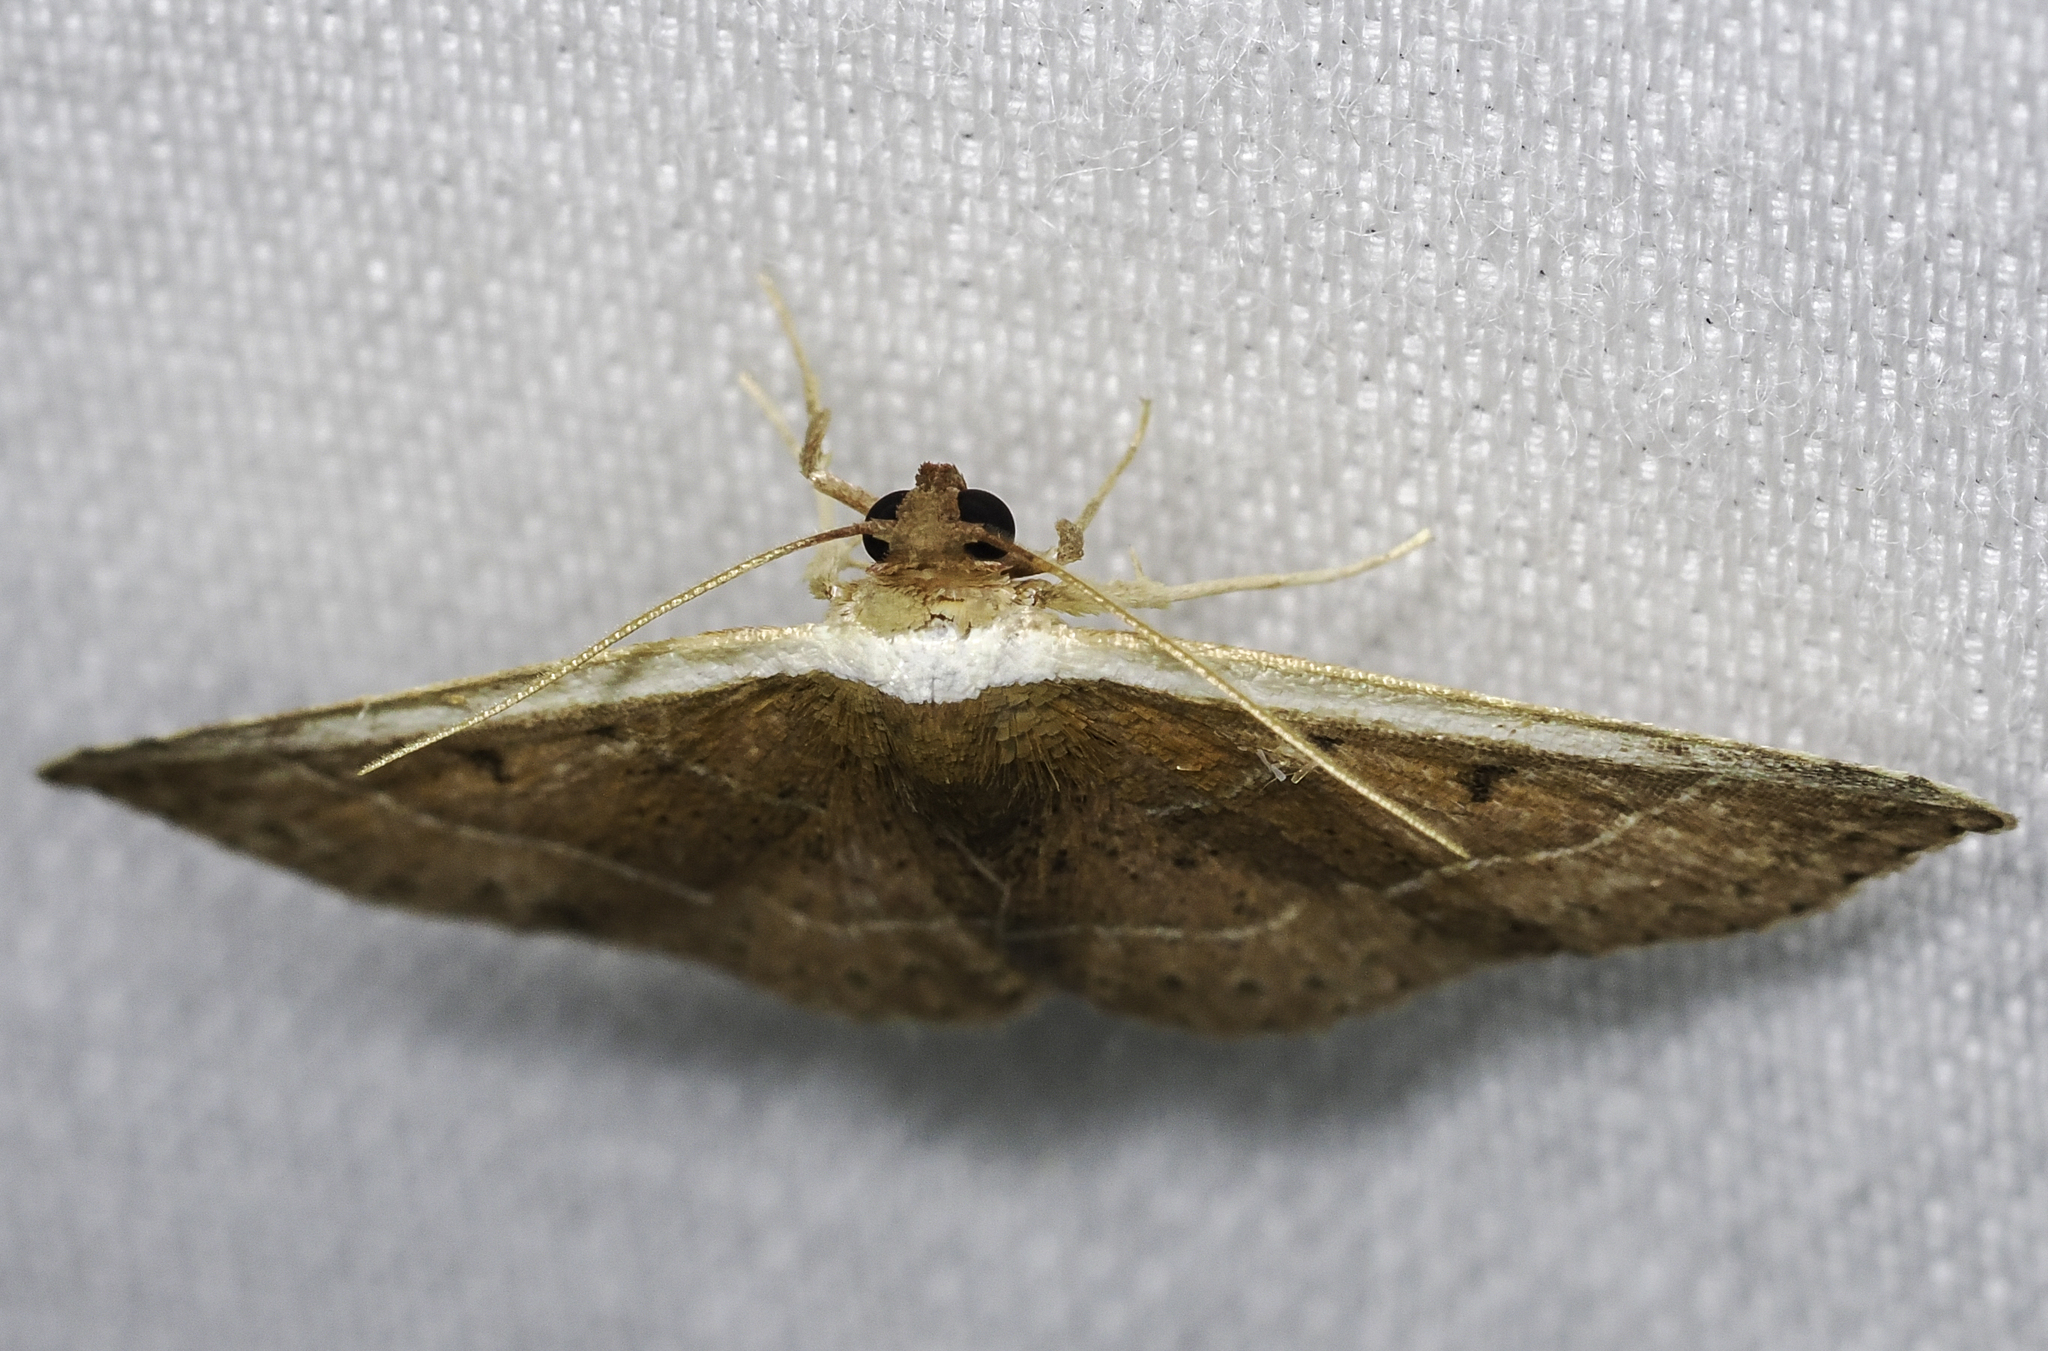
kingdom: Animalia
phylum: Arthropoda
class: Insecta
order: Lepidoptera
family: Noctuidae
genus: Ozarba
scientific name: Ozarba albocostaliata
